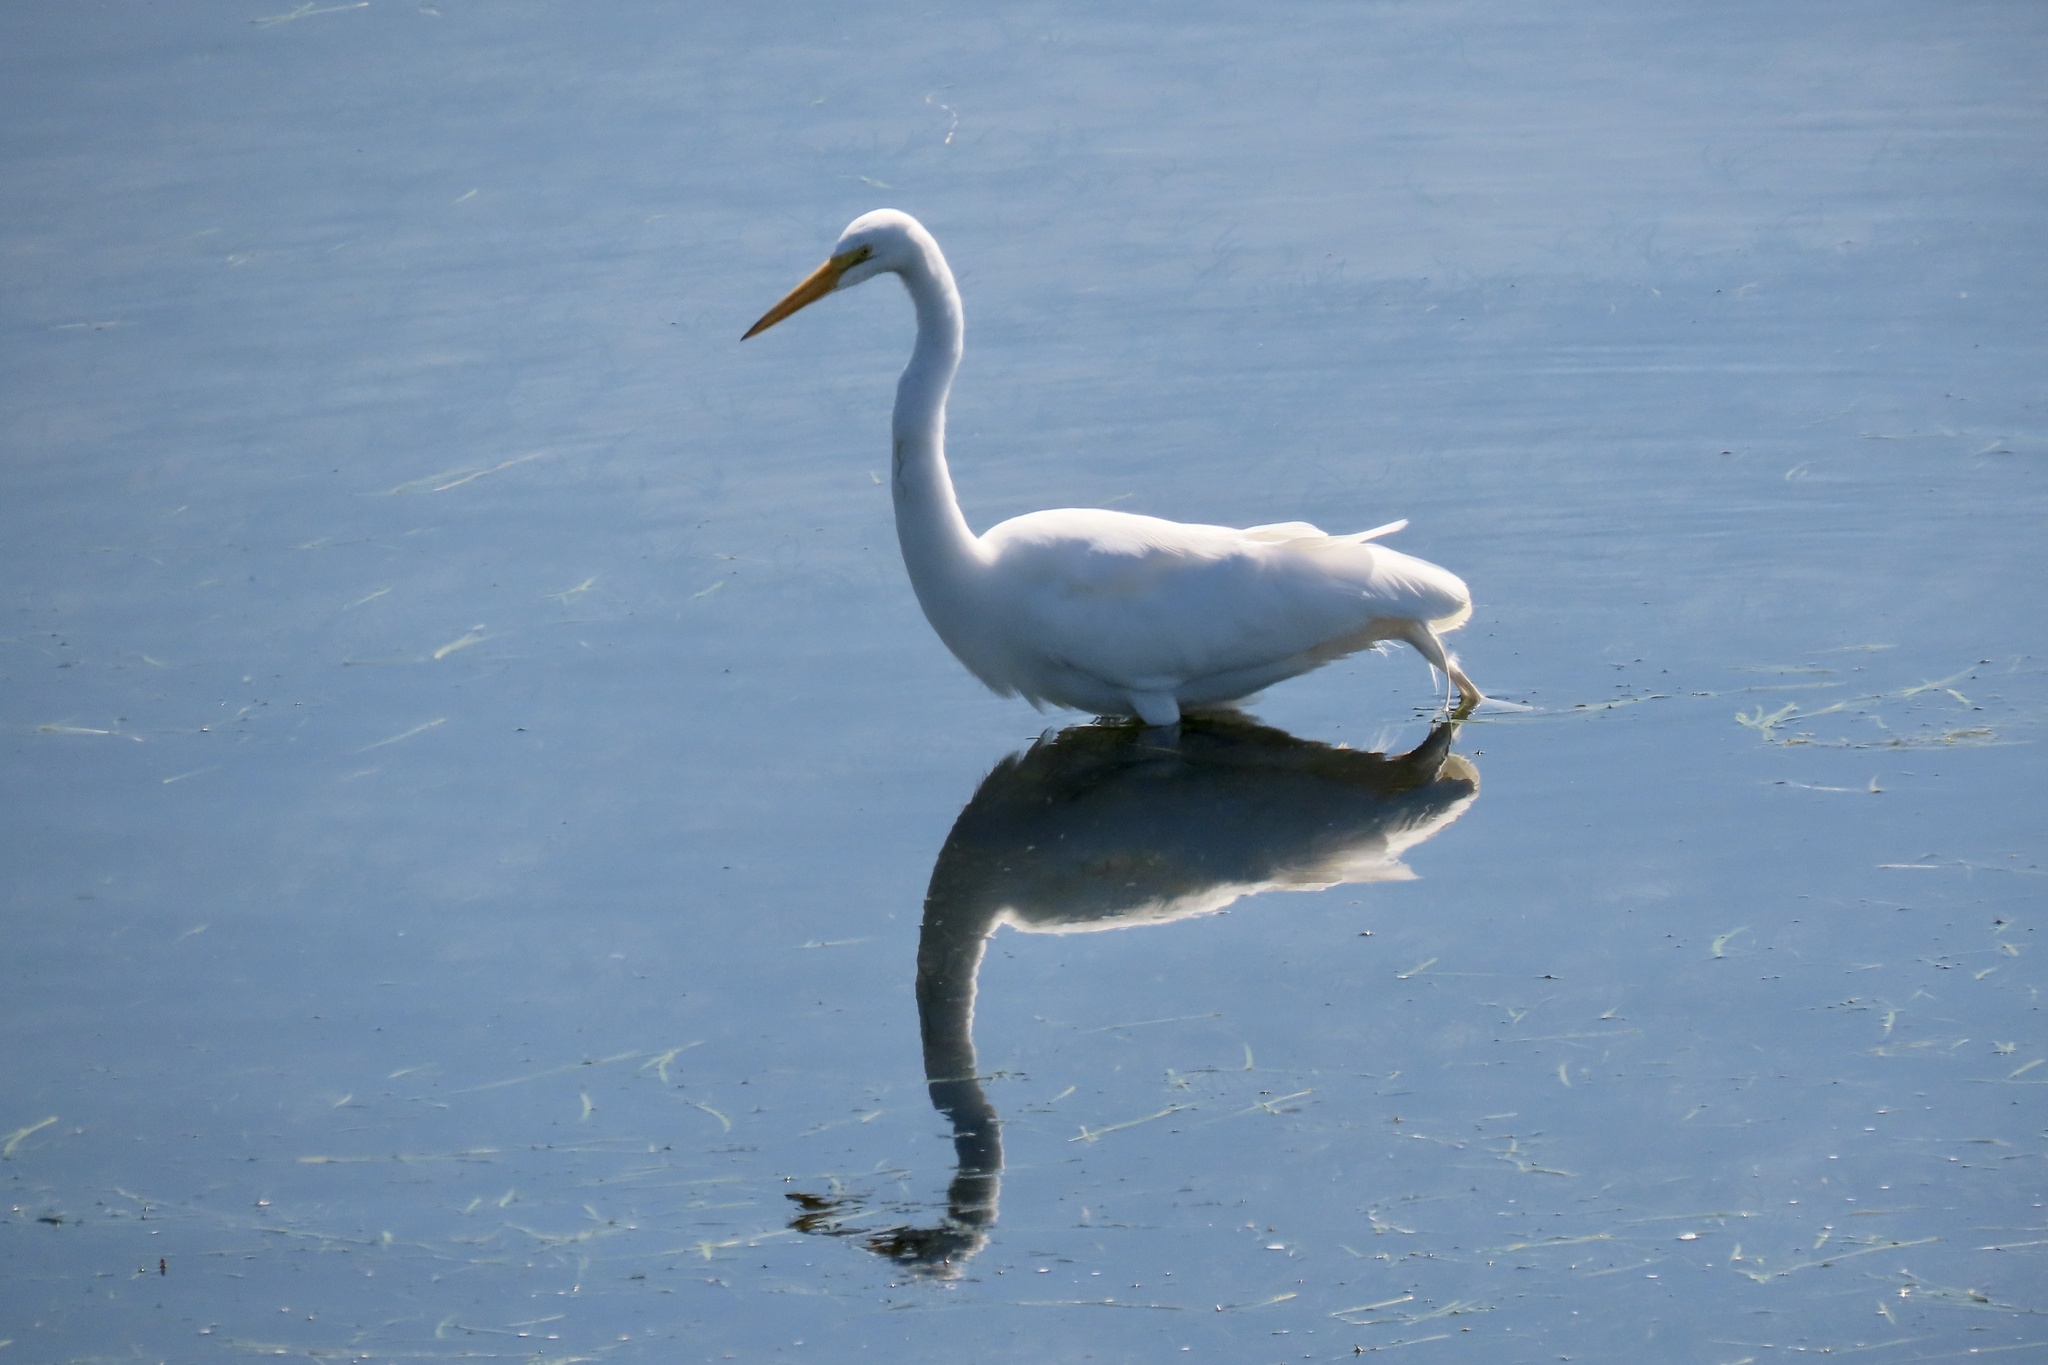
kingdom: Animalia
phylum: Chordata
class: Aves
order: Pelecaniformes
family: Ardeidae
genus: Ardea
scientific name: Ardea alba
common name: Great egret
